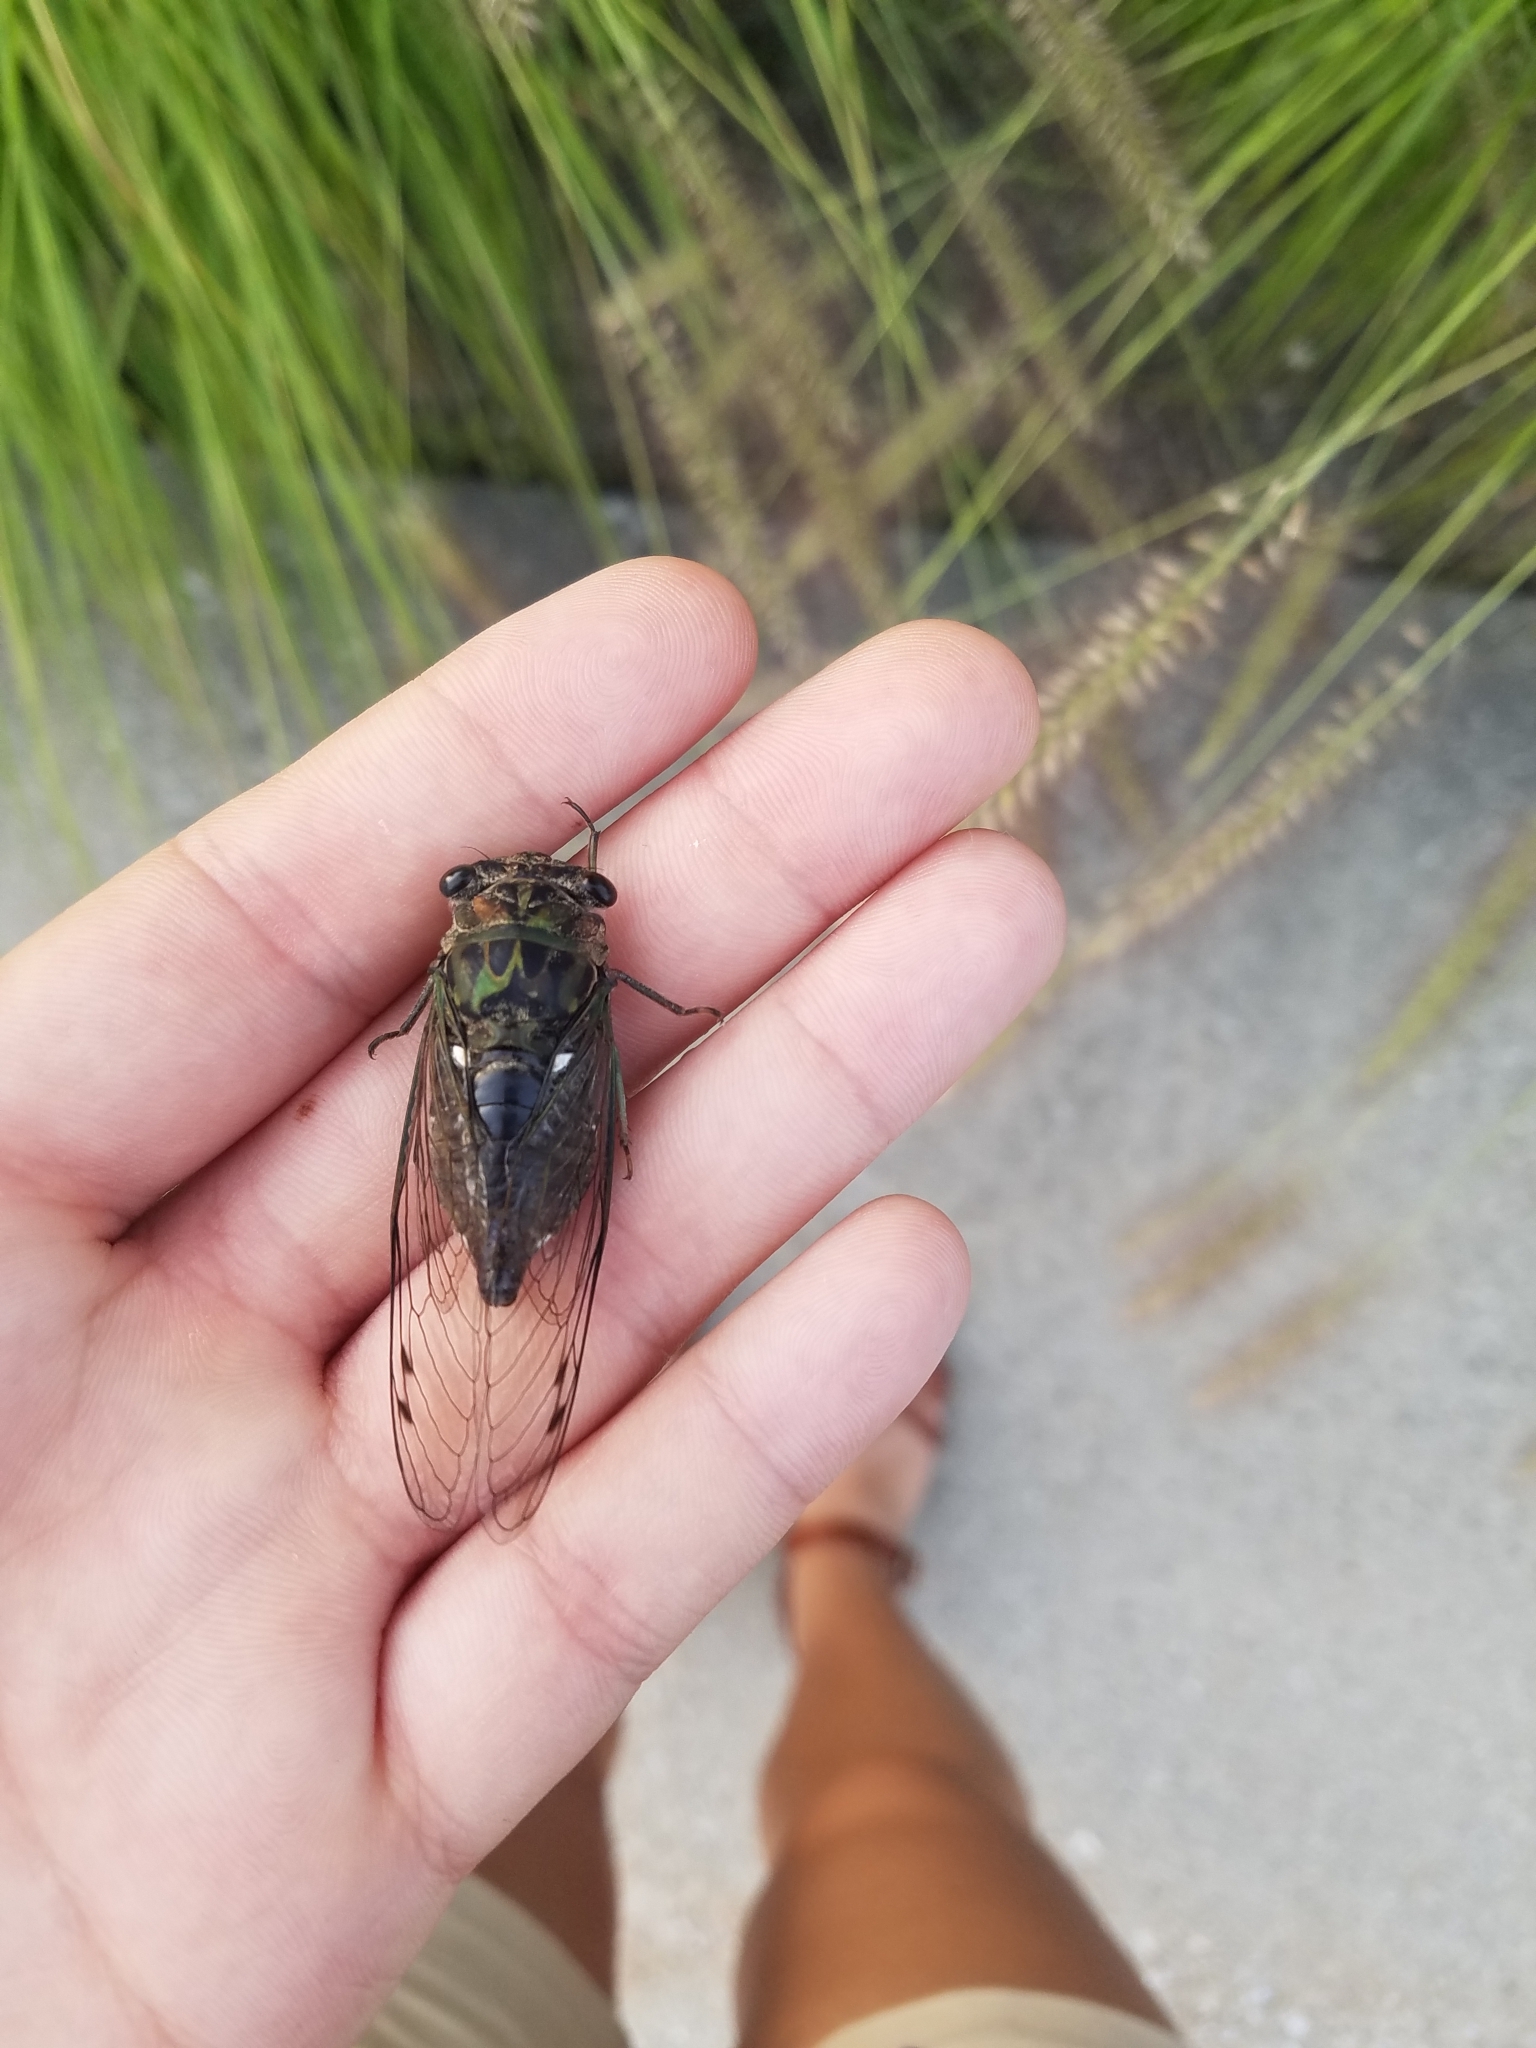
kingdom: Animalia
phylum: Arthropoda
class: Insecta
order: Hemiptera
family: Cicadidae
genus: Neotibicen
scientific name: Neotibicen pruinosus
